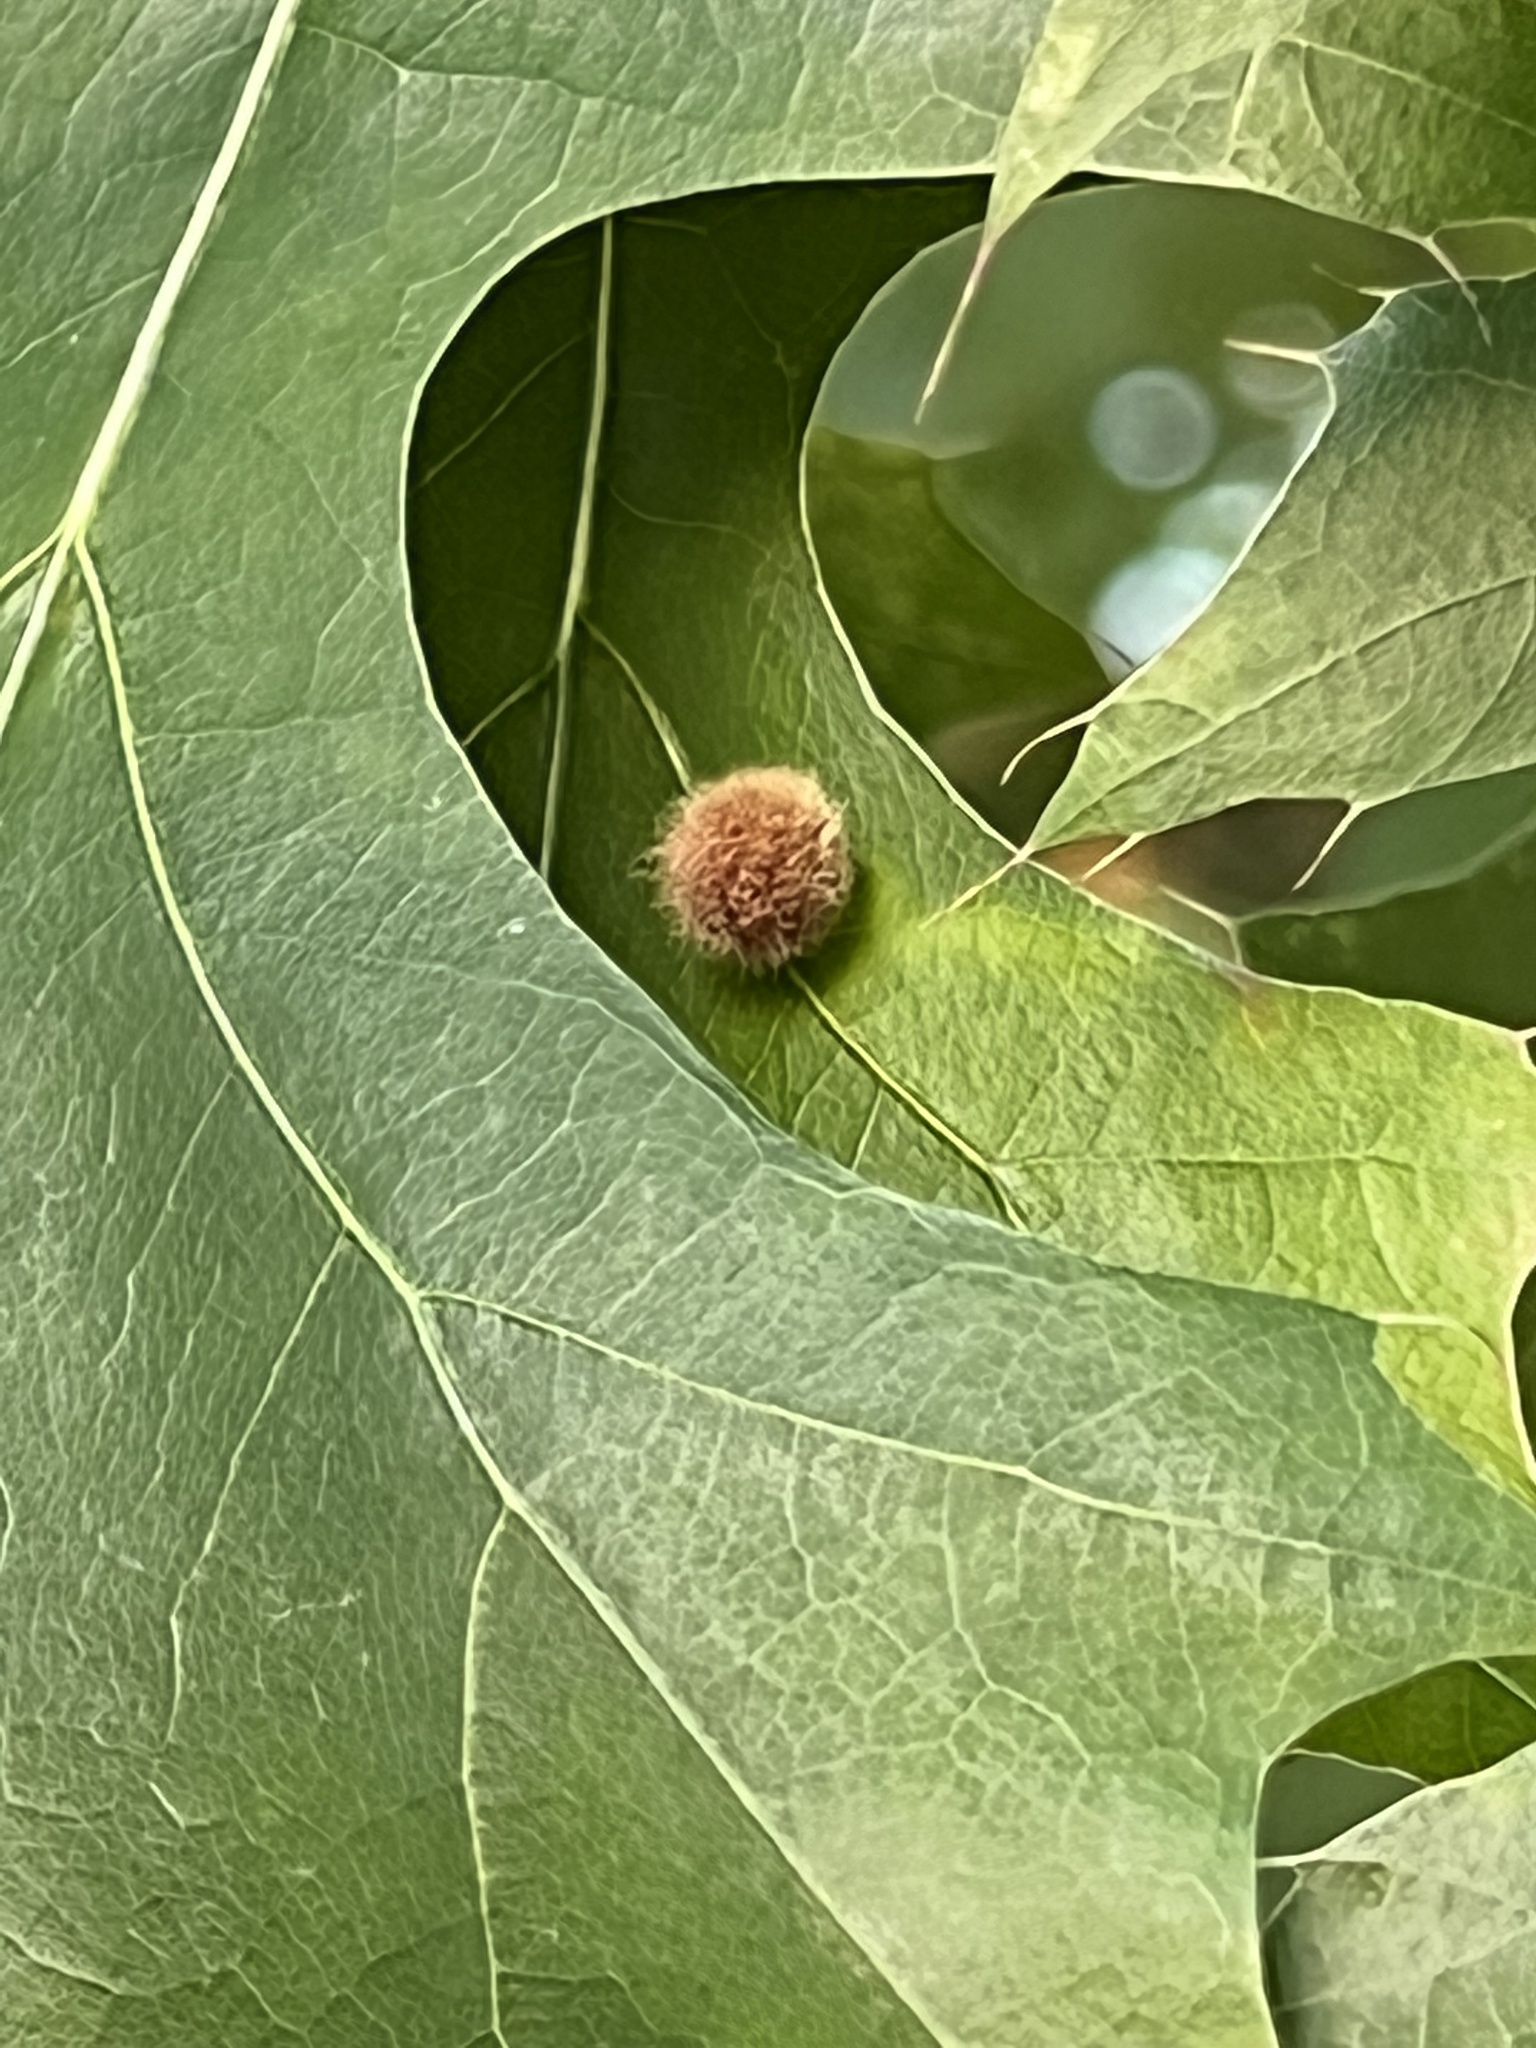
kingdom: Animalia
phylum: Arthropoda
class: Insecta
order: Hymenoptera
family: Cynipidae
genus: Callirhytis
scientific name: Callirhytis
